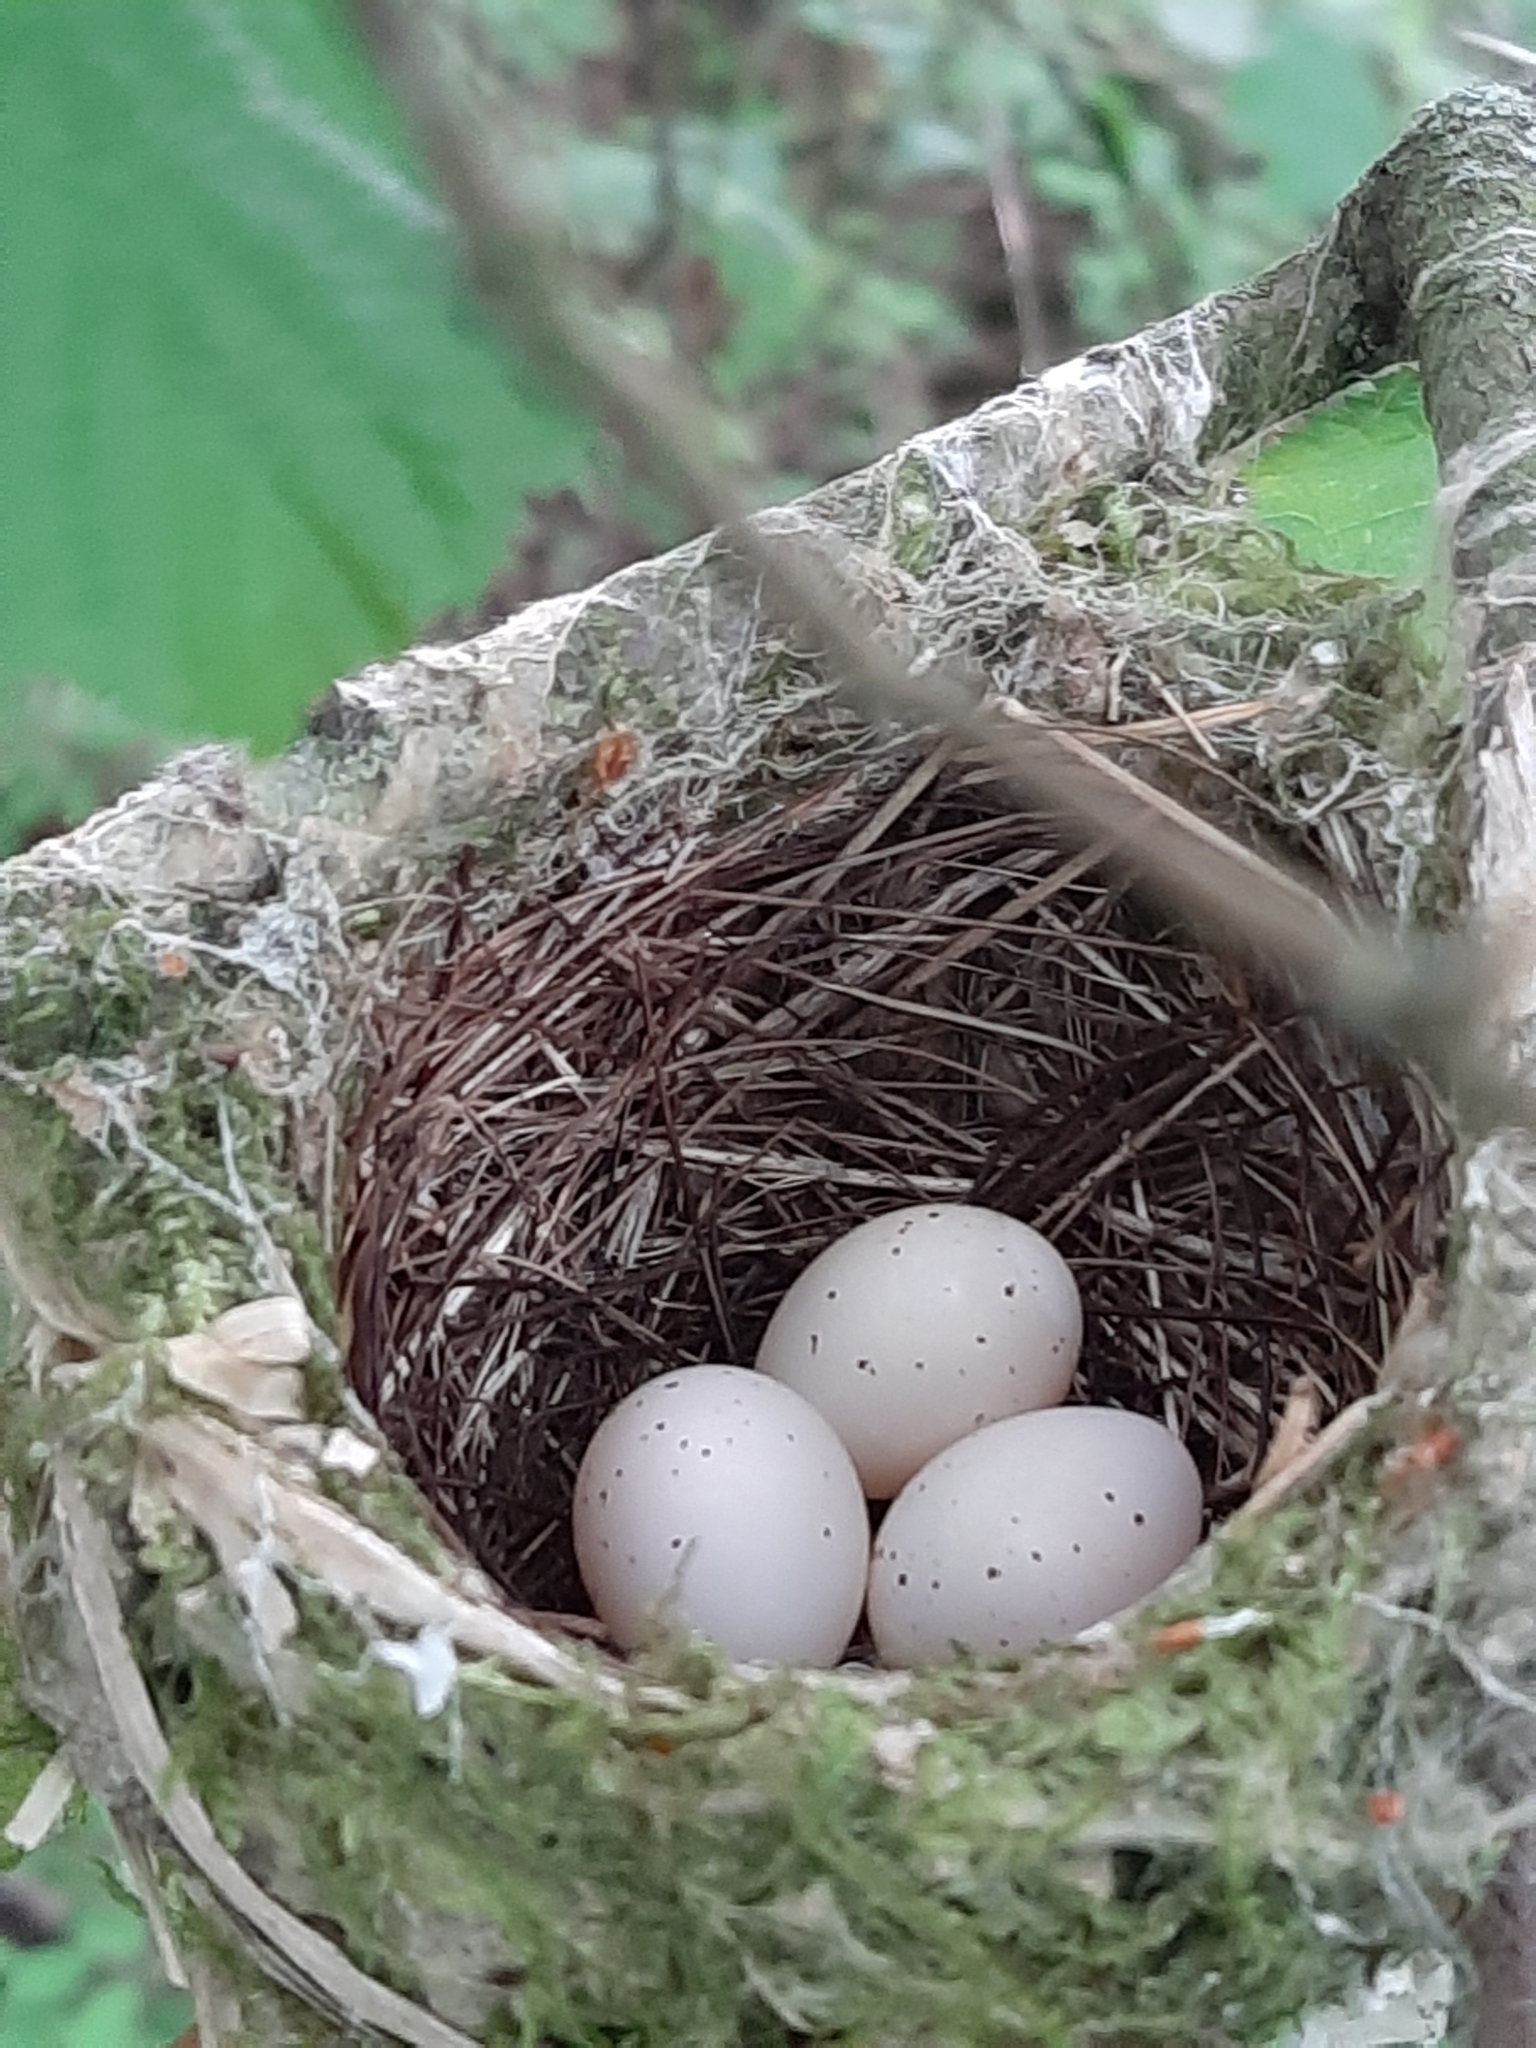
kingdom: Animalia
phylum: Chordata
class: Aves
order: Passeriformes
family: Vireonidae
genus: Vireo
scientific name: Vireo huttoni
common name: Hutton's vireo
